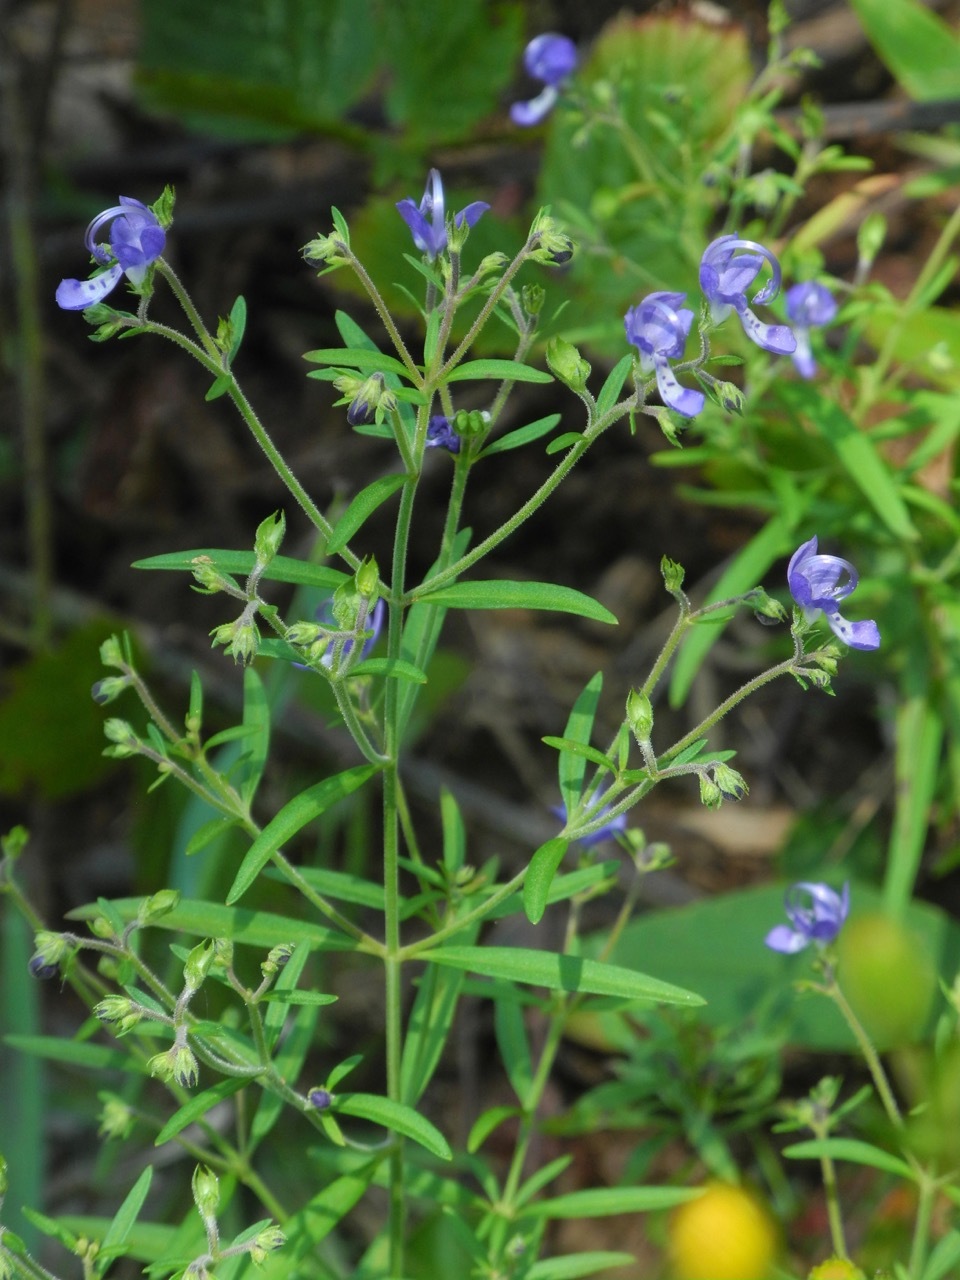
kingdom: Plantae
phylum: Tracheophyta
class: Magnoliopsida
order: Lamiales
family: Lamiaceae
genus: Trichostema
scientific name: Trichostema setaceum
